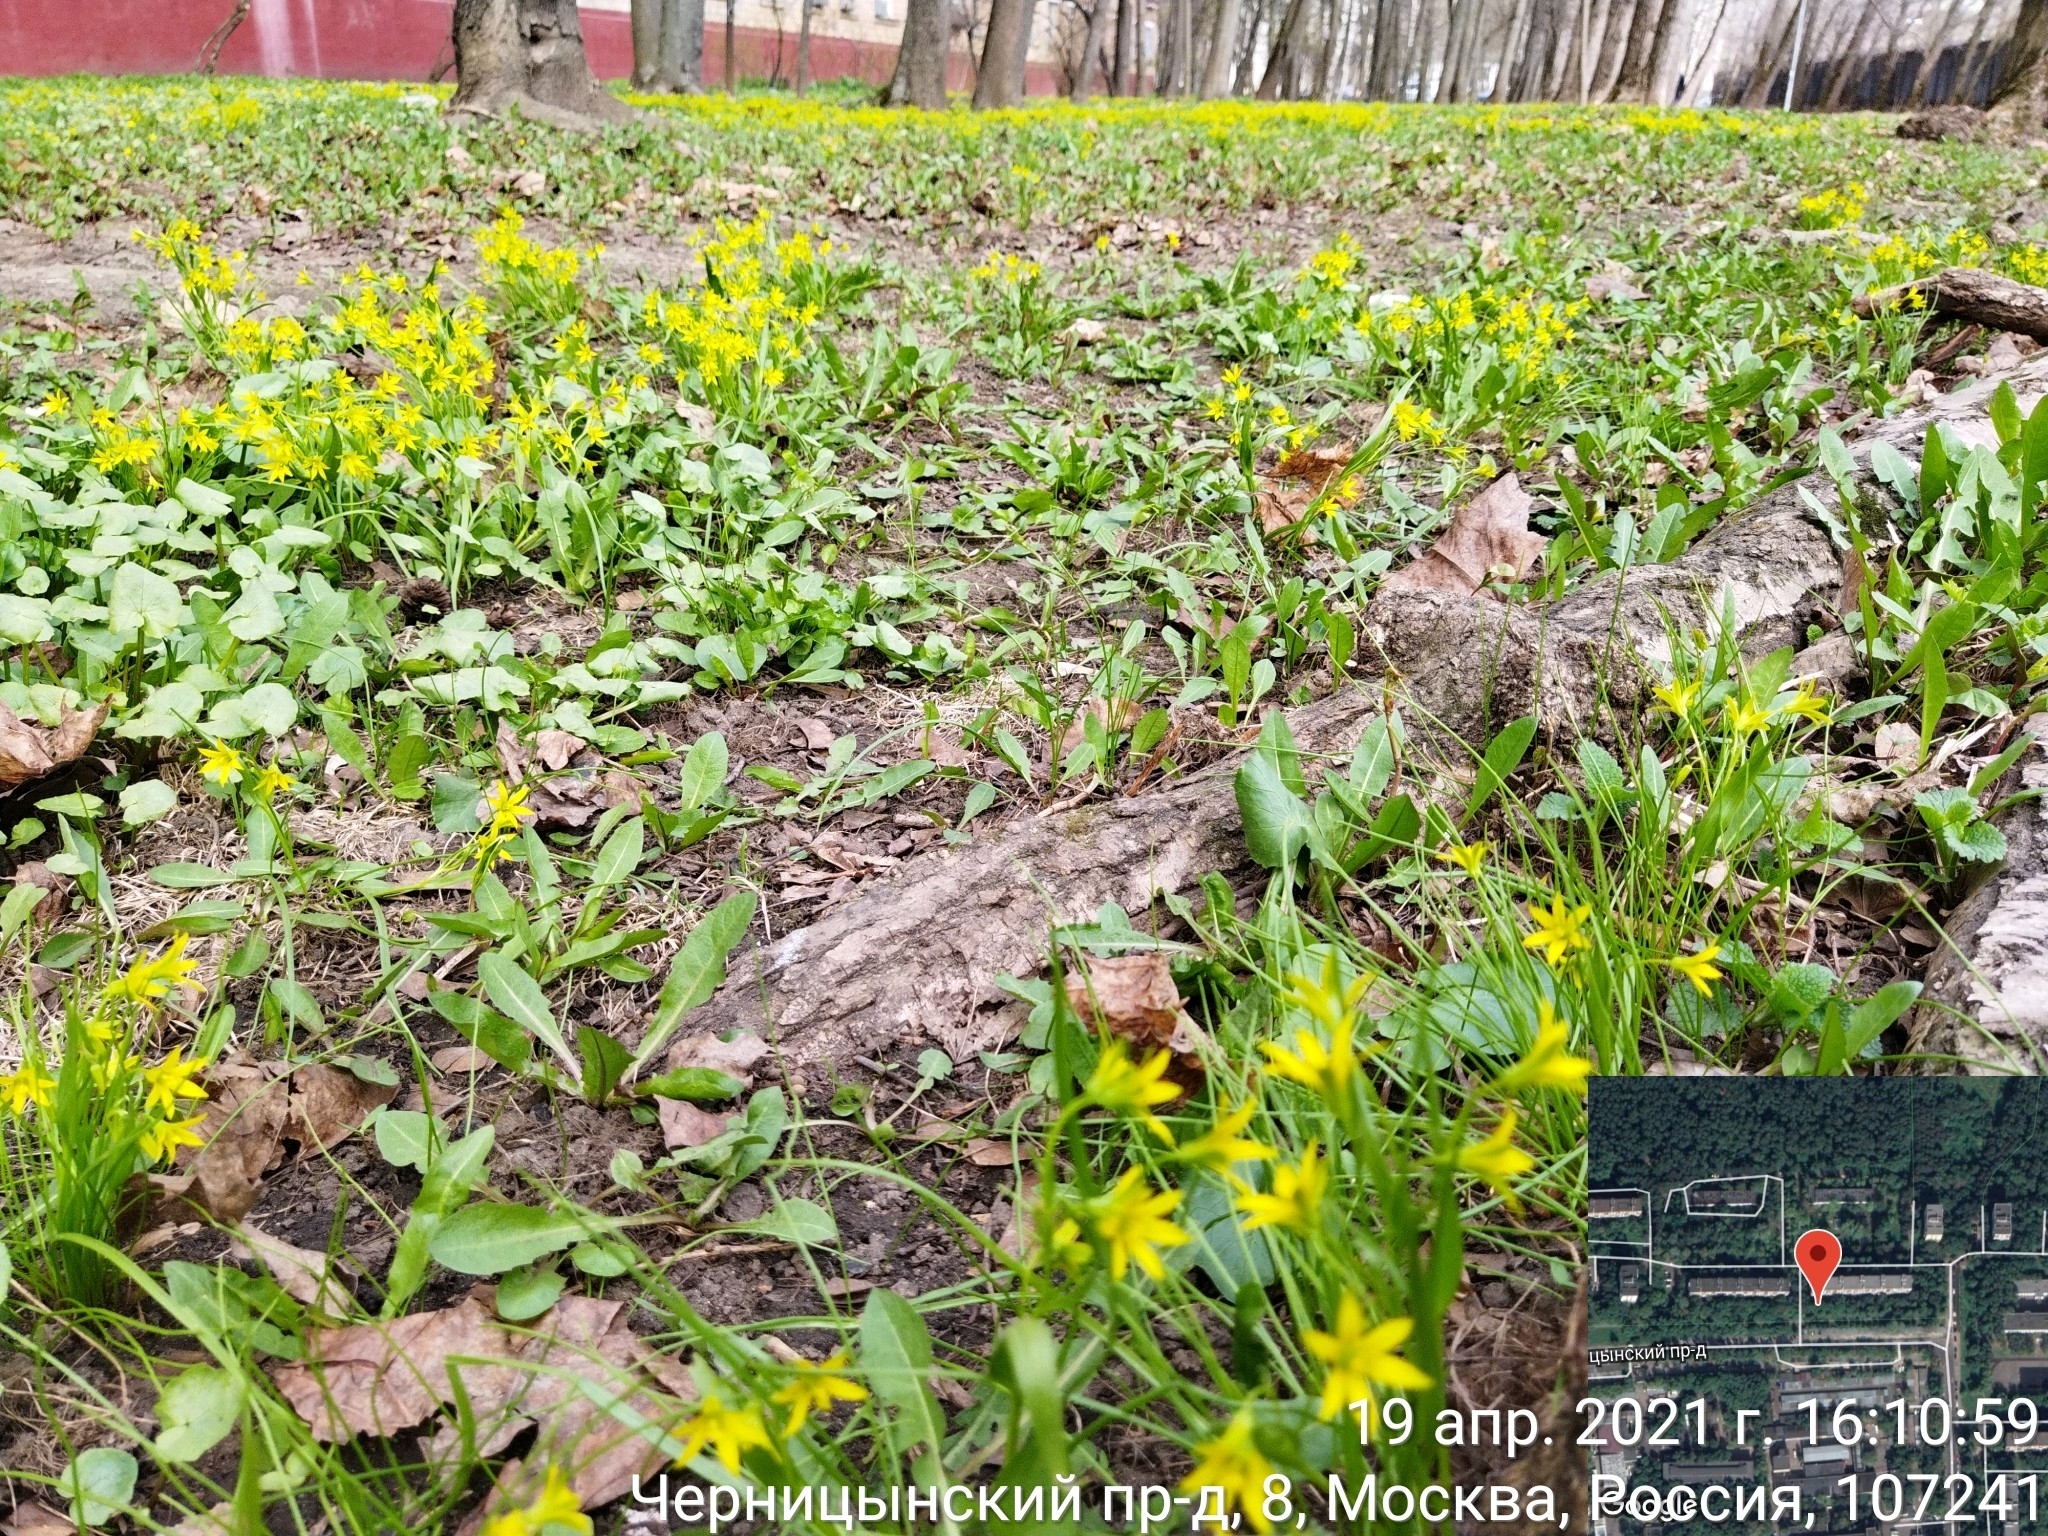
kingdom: Plantae
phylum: Tracheophyta
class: Liliopsida
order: Liliales
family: Liliaceae
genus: Gagea
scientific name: Gagea minima
